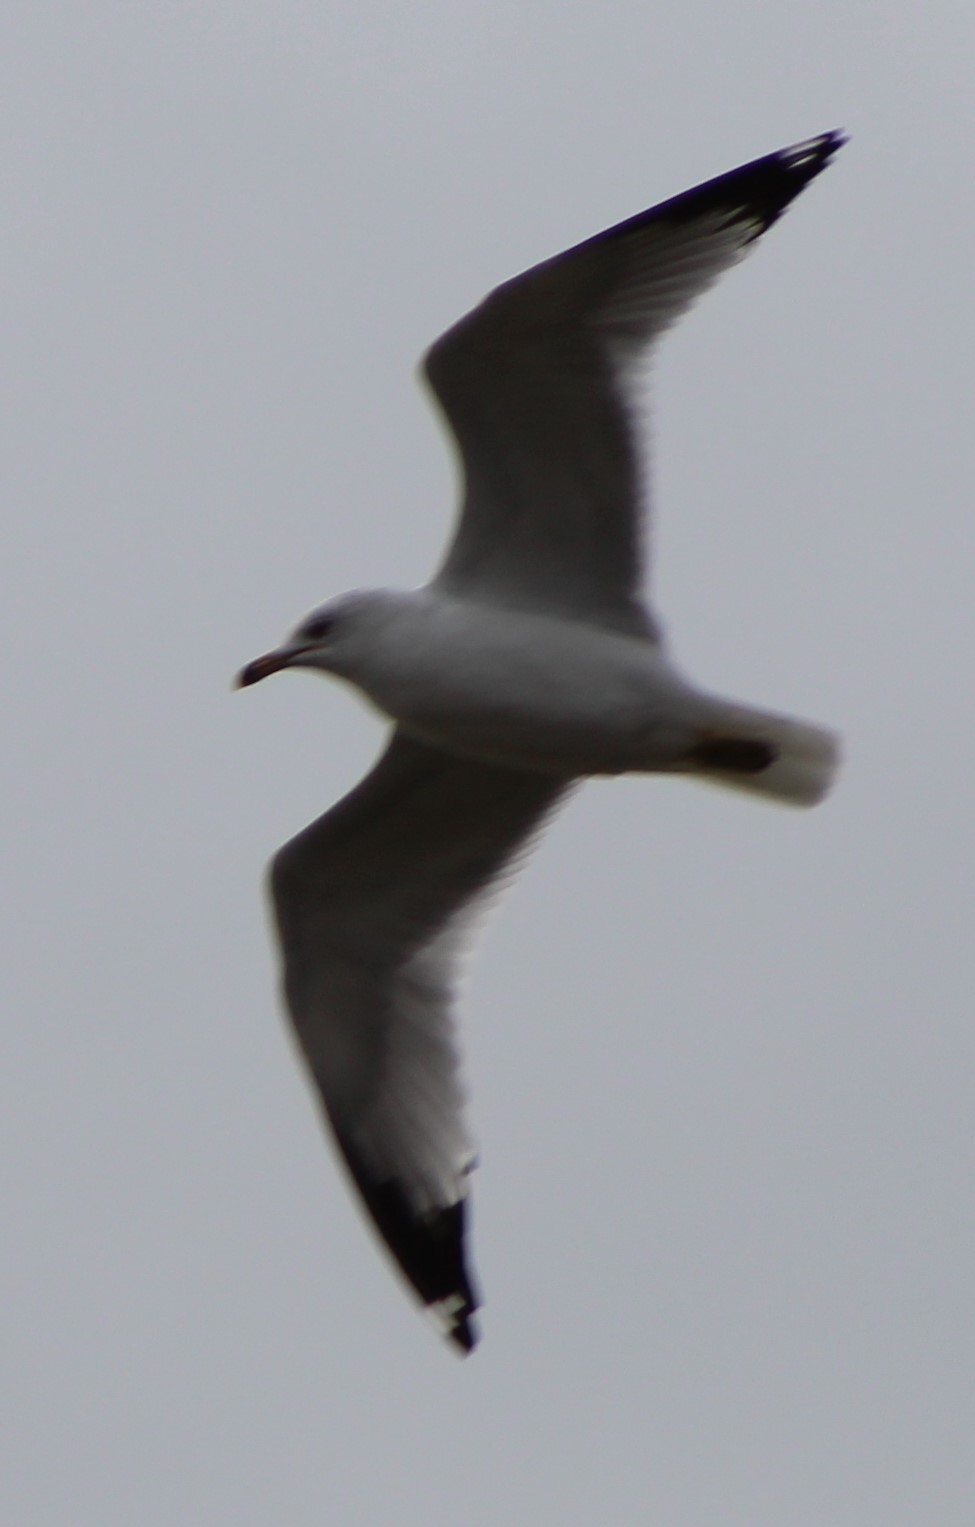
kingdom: Animalia
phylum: Chordata
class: Aves
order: Charadriiformes
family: Laridae
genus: Larus
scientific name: Larus delawarensis
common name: Ring-billed gull
